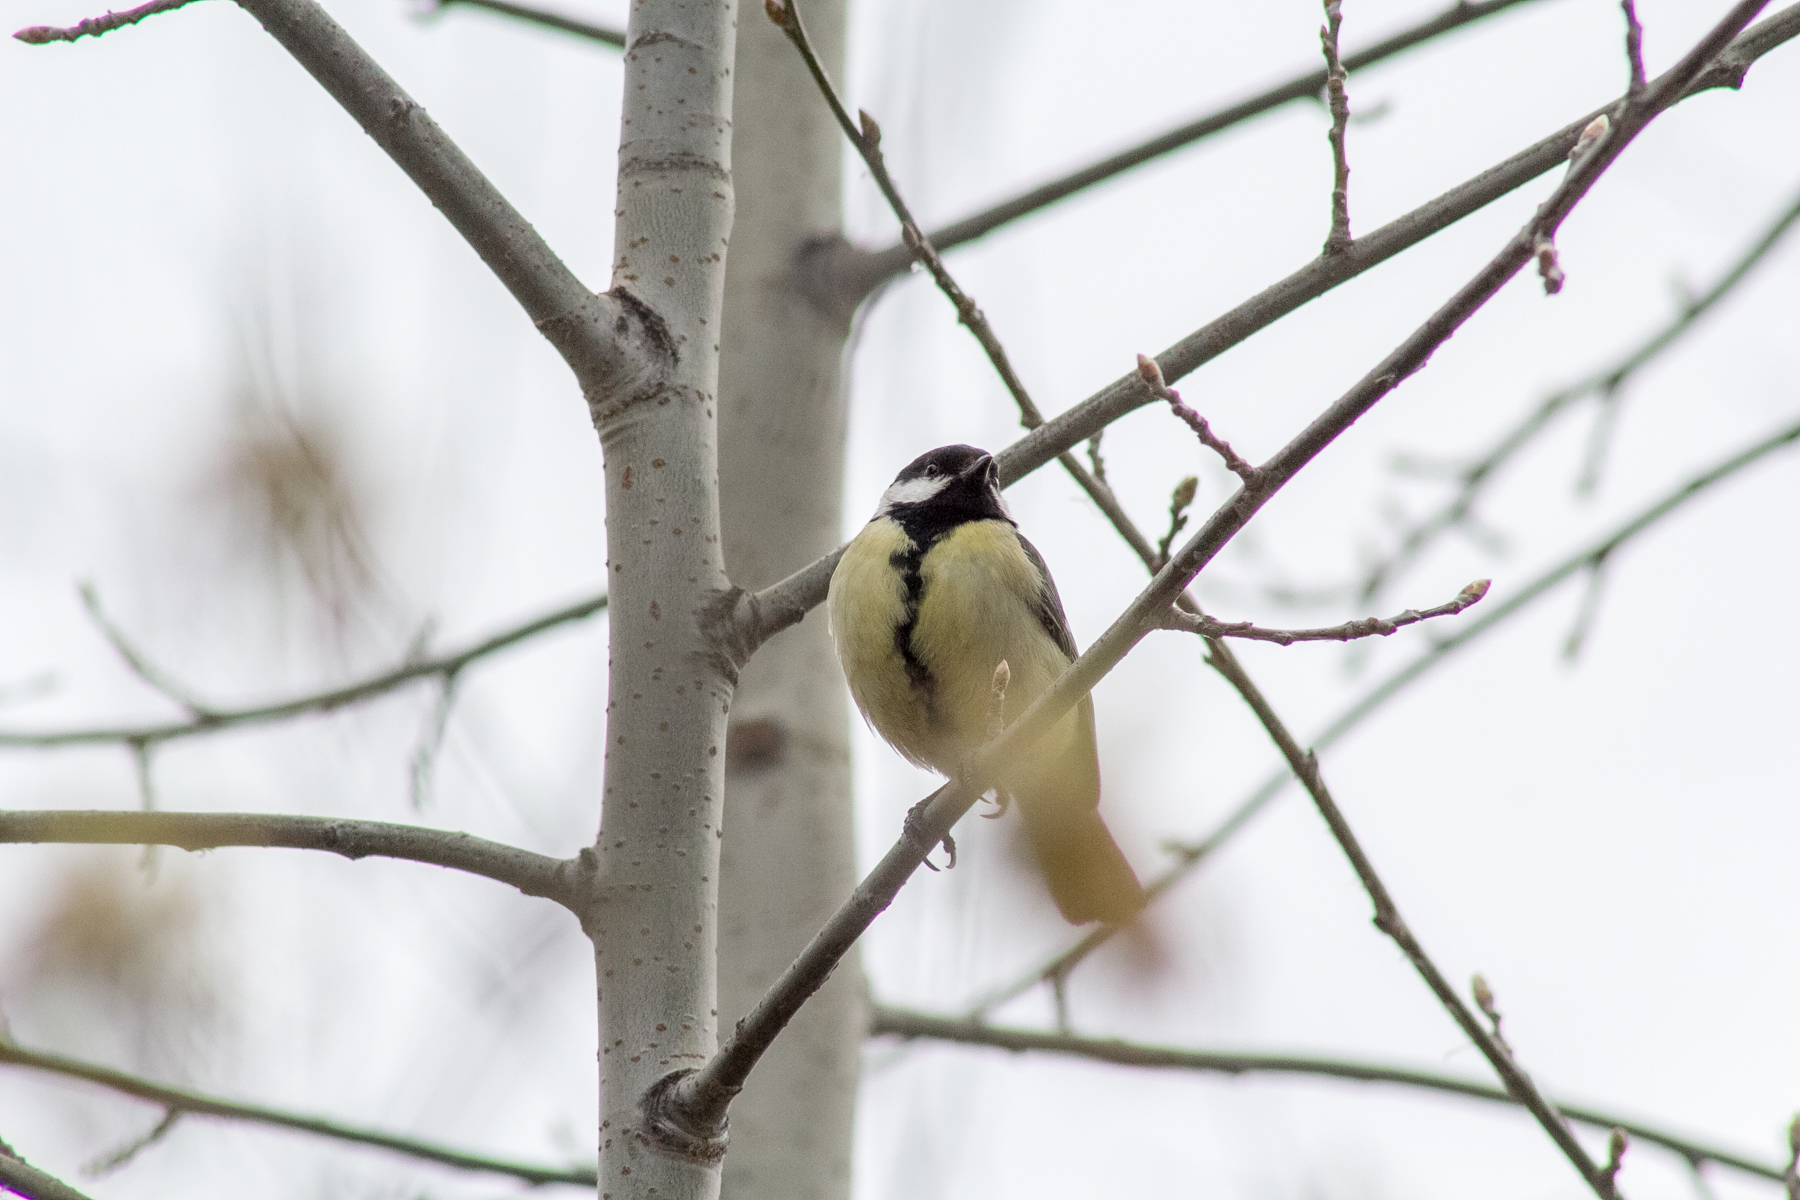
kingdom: Animalia
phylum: Chordata
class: Aves
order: Passeriformes
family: Paridae
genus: Parus
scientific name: Parus major
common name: Great tit
